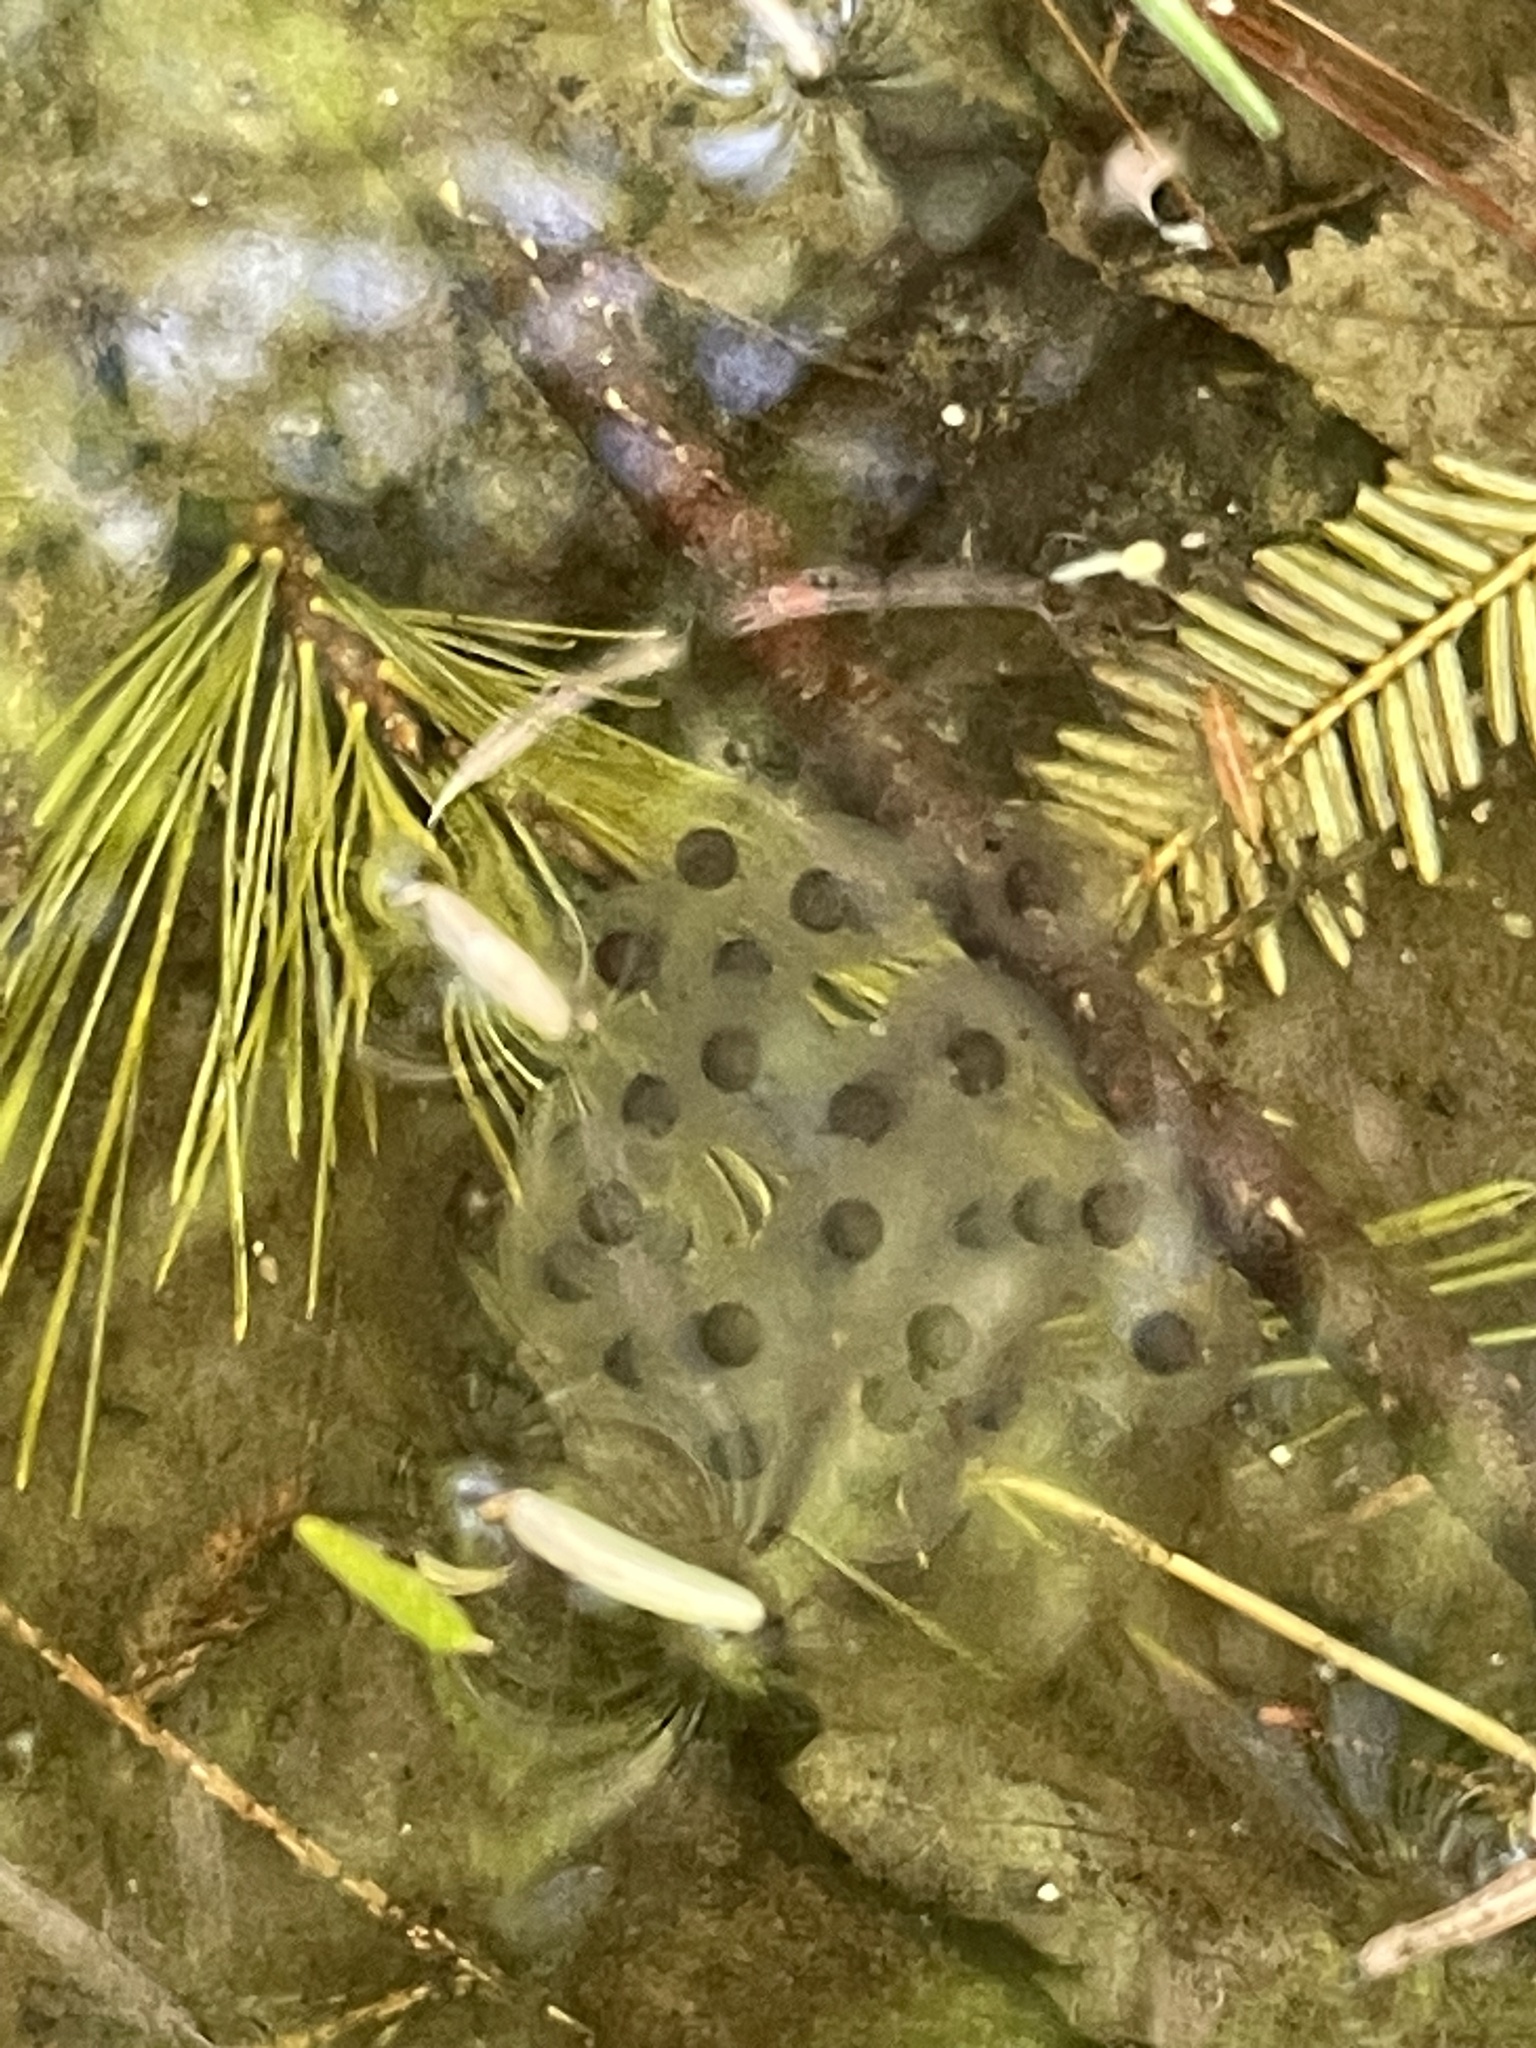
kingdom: Animalia
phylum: Chordata
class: Amphibia
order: Caudata
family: Ambystomatidae
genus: Ambystoma
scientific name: Ambystoma maculatum
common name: Spotted salamander
